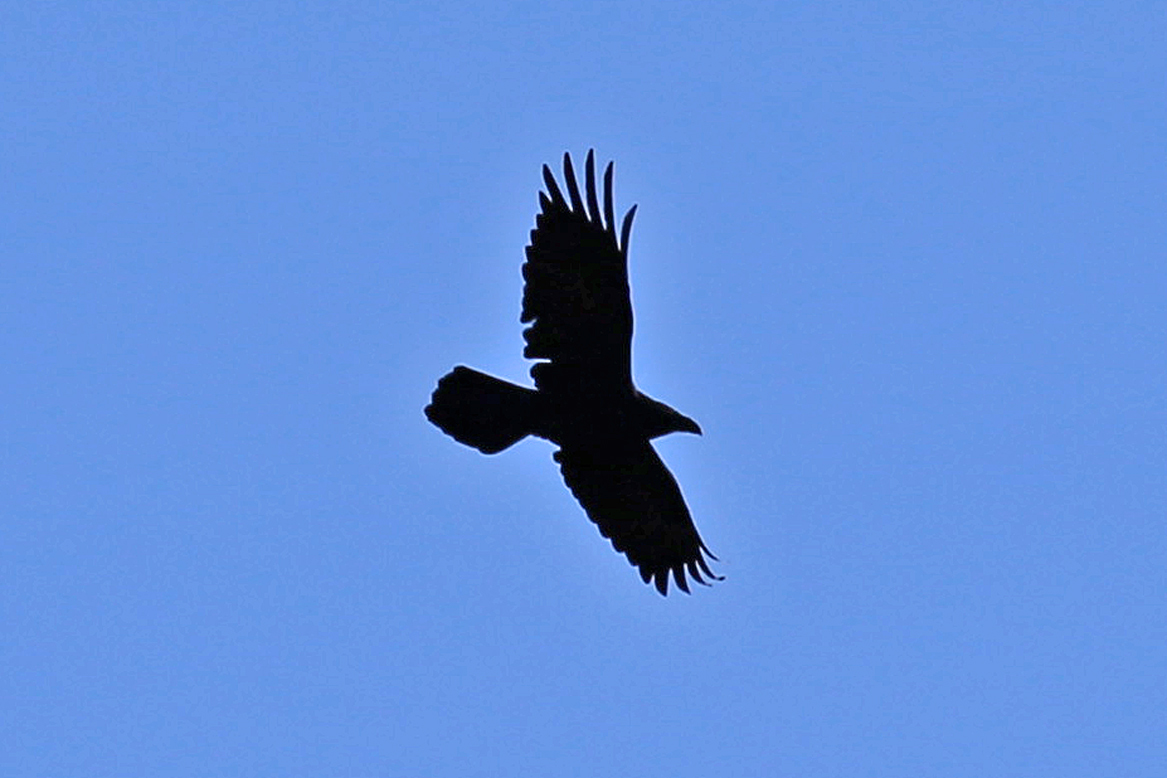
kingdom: Animalia
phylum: Chordata
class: Aves
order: Passeriformes
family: Corvidae
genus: Corvus
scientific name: Corvus corax
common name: Common raven
